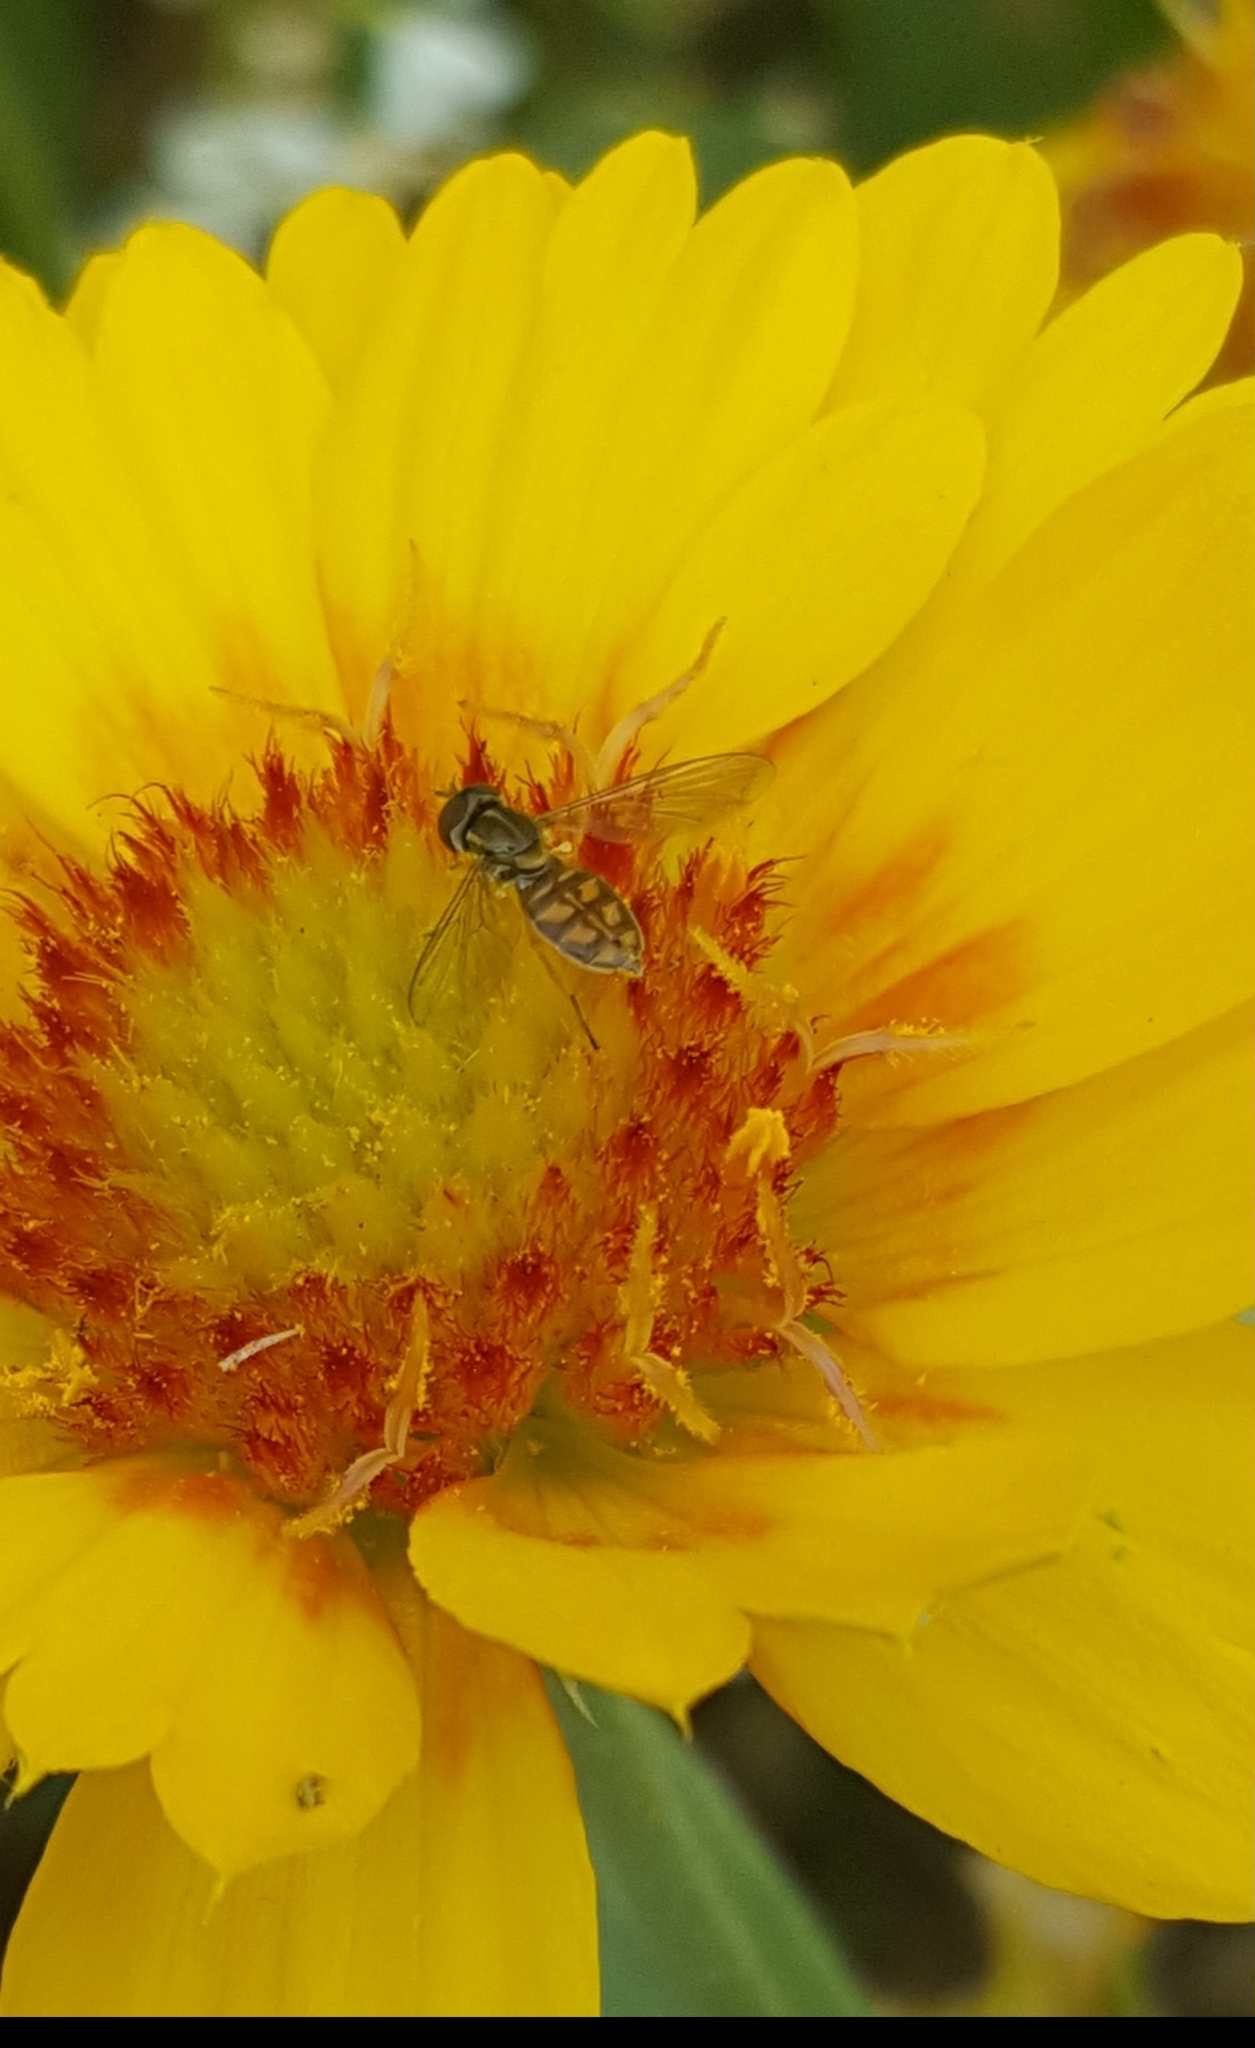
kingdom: Animalia
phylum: Arthropoda
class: Insecta
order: Diptera
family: Syrphidae
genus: Toxomerus
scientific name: Toxomerus marginatus
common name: Syrphid fly
